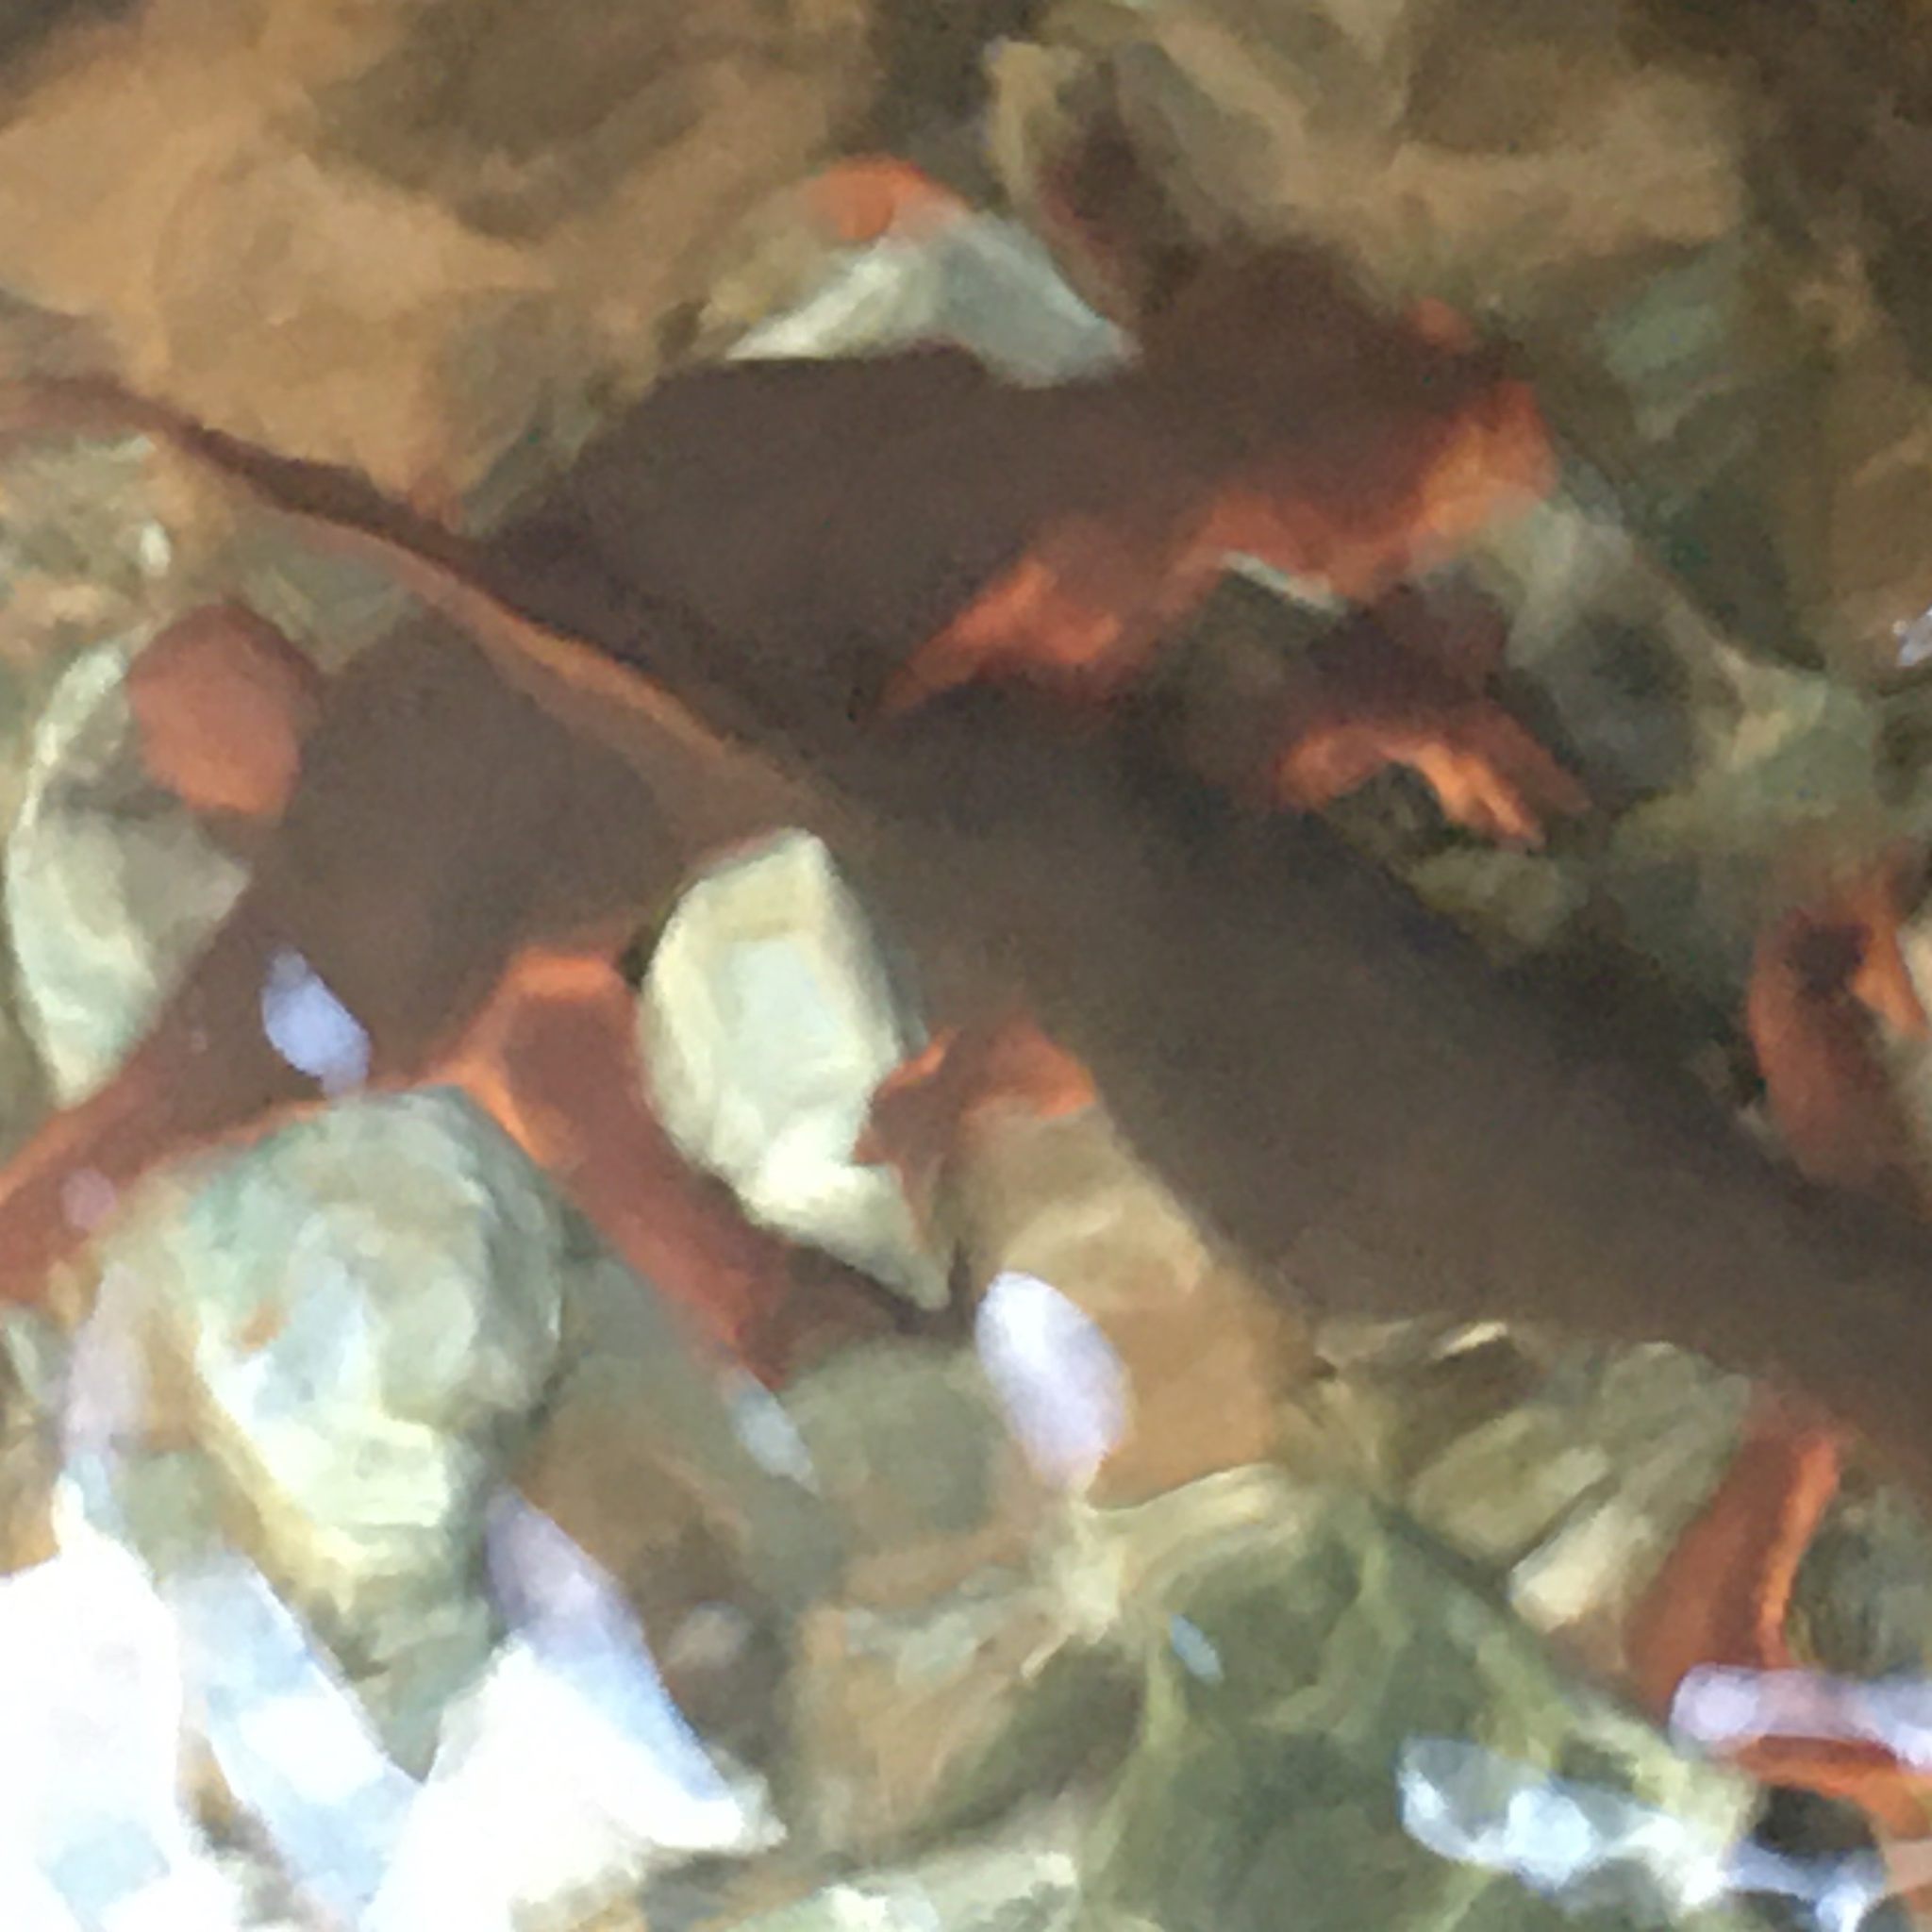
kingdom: Animalia
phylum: Chordata
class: Amphibia
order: Caudata
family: Salamandridae
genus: Taricha
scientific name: Taricha sierrae
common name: Sierra newt
